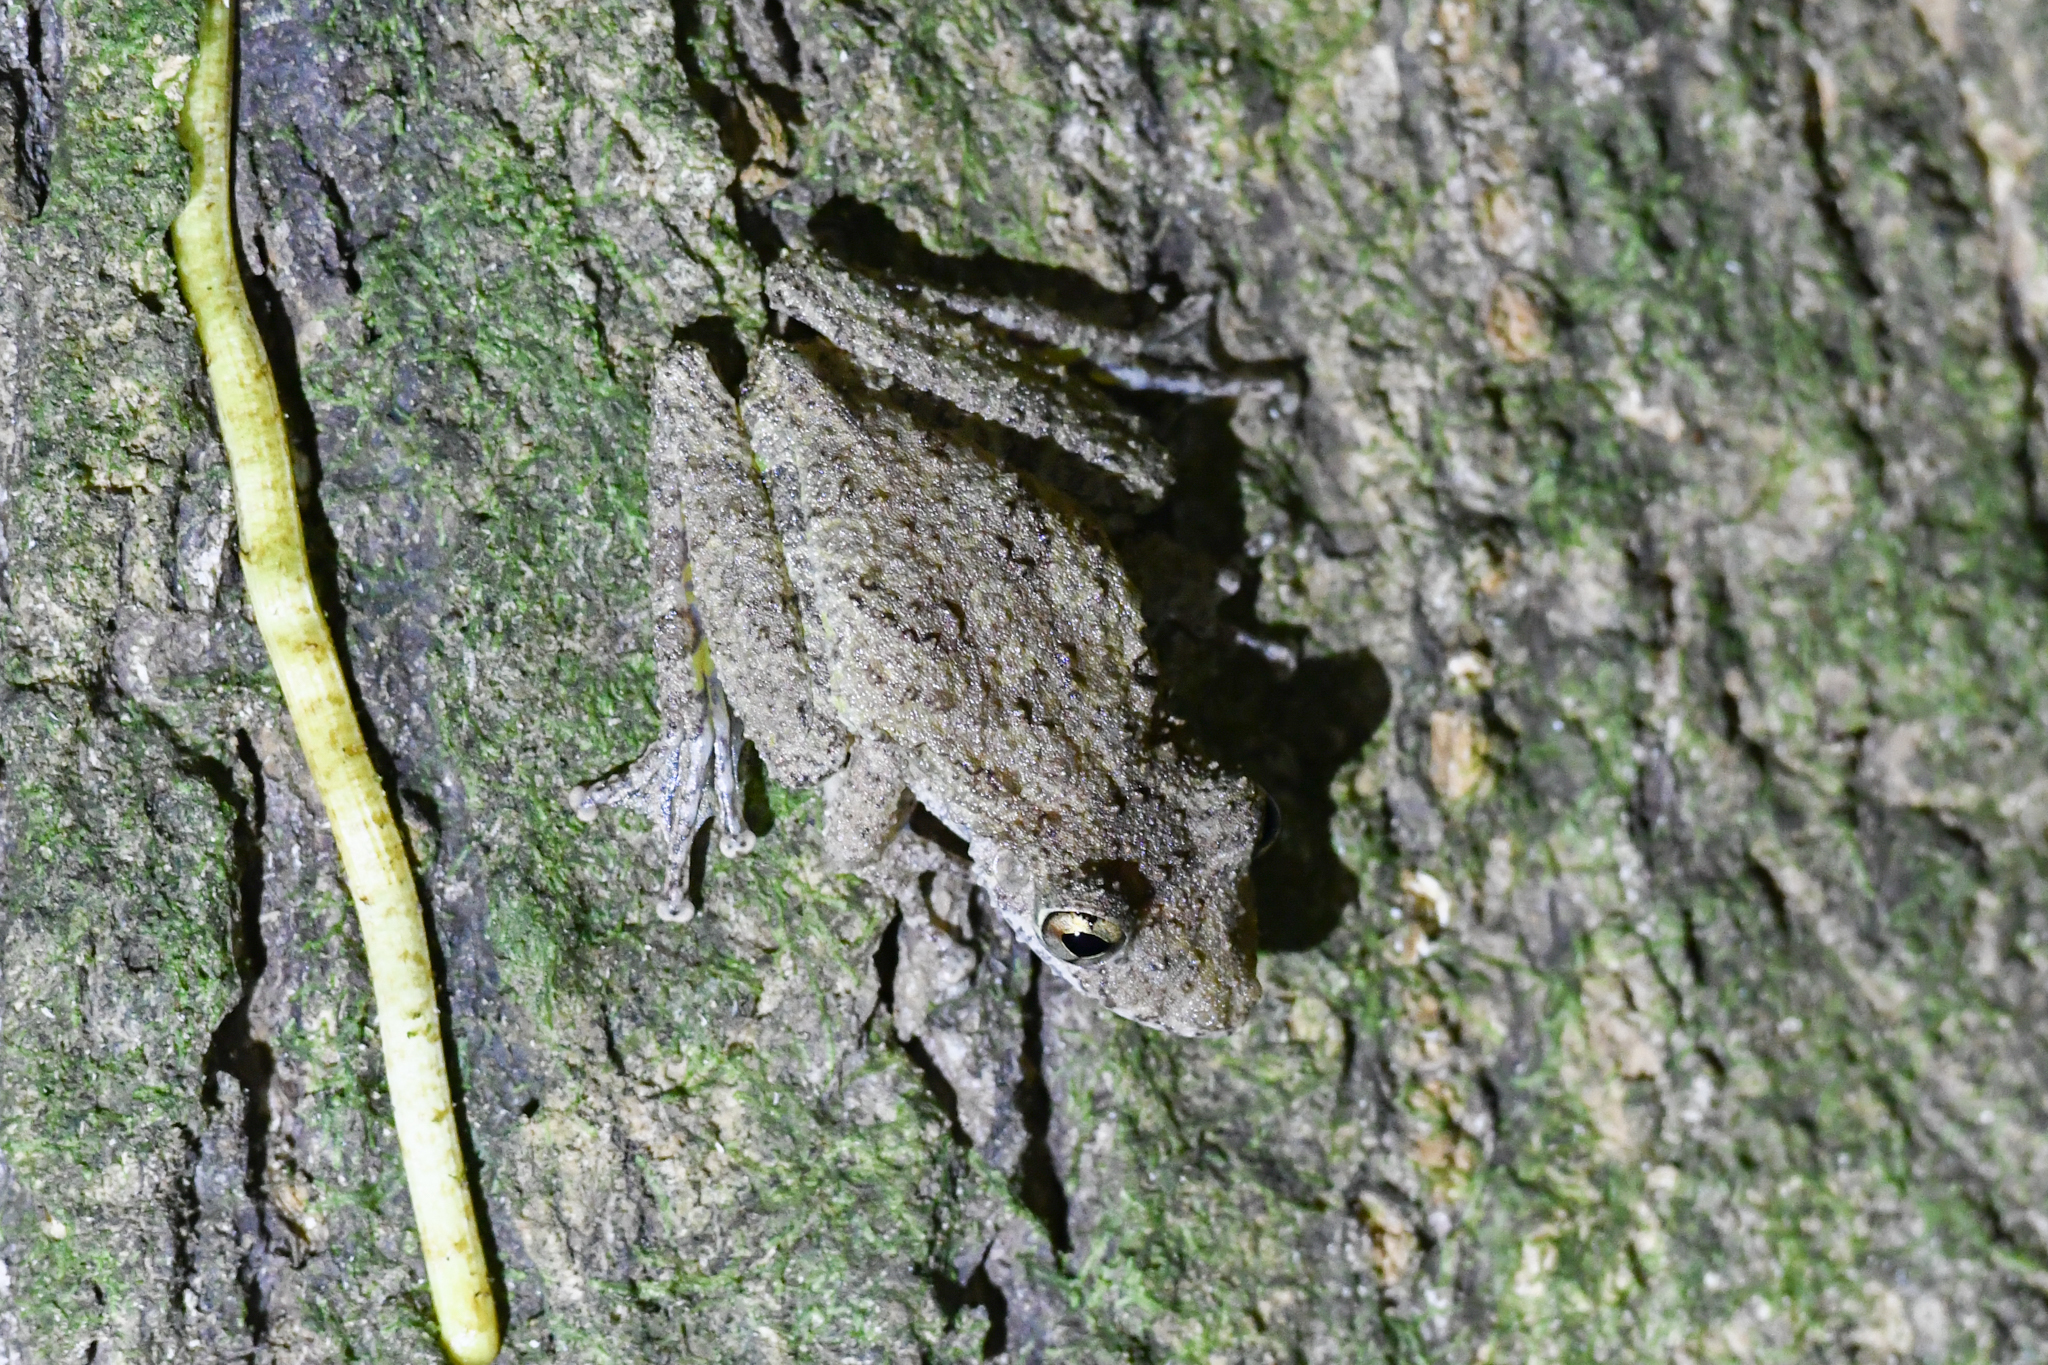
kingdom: Animalia
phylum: Chordata
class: Amphibia
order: Anura
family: Hylidae
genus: Scinax
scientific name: Scinax boulengeri
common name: Boulenger's snouted treefrog
